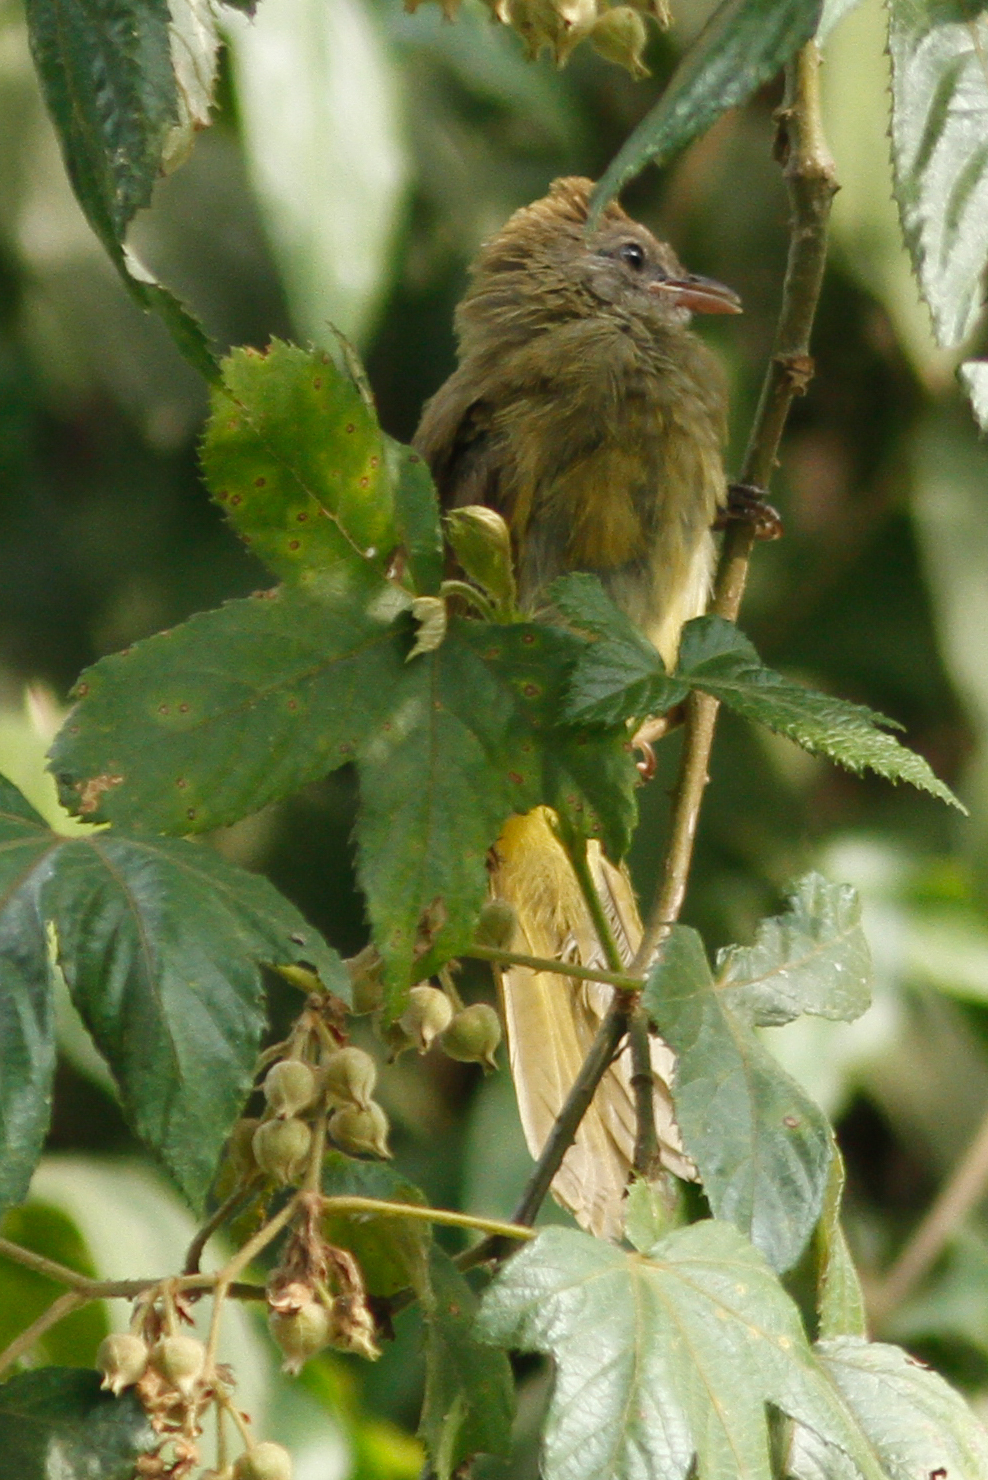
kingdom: Animalia
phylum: Chordata
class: Aves
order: Passeriformes
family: Pycnonotidae
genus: Pycnonotus
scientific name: Pycnonotus flavescens
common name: Flavescent bulbul
